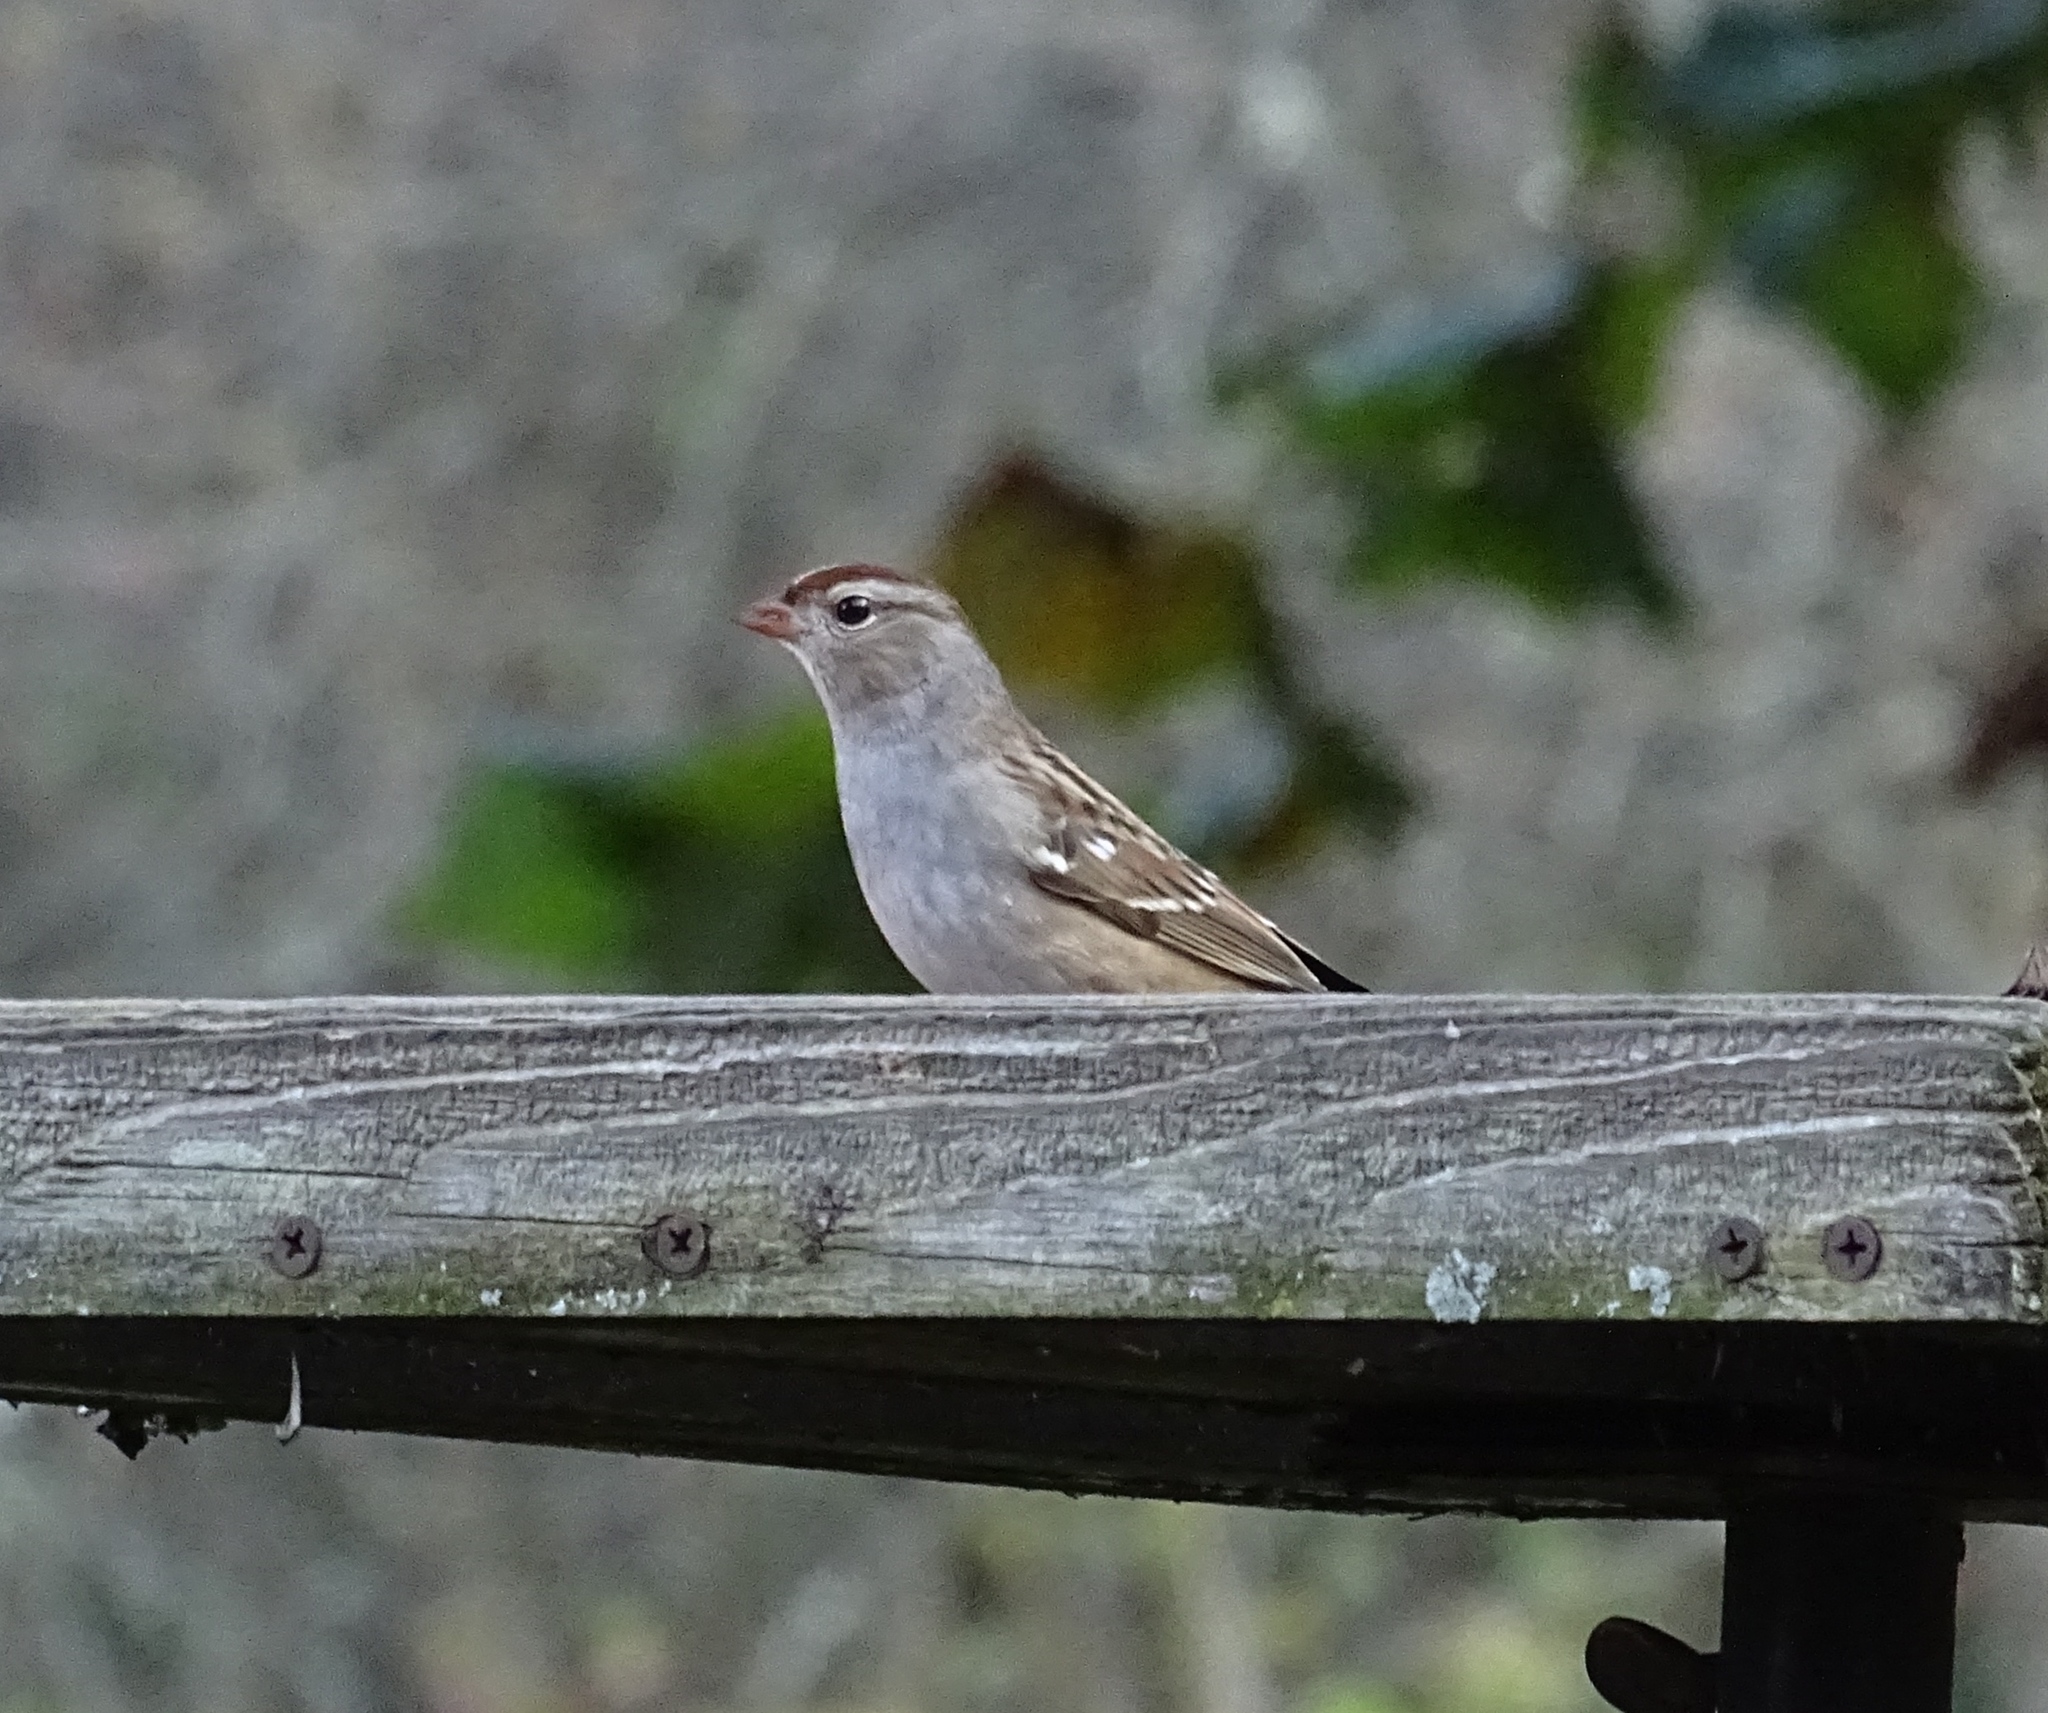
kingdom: Animalia
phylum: Chordata
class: Aves
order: Passeriformes
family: Passerellidae
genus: Zonotrichia
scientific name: Zonotrichia leucophrys
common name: White-crowned sparrow
